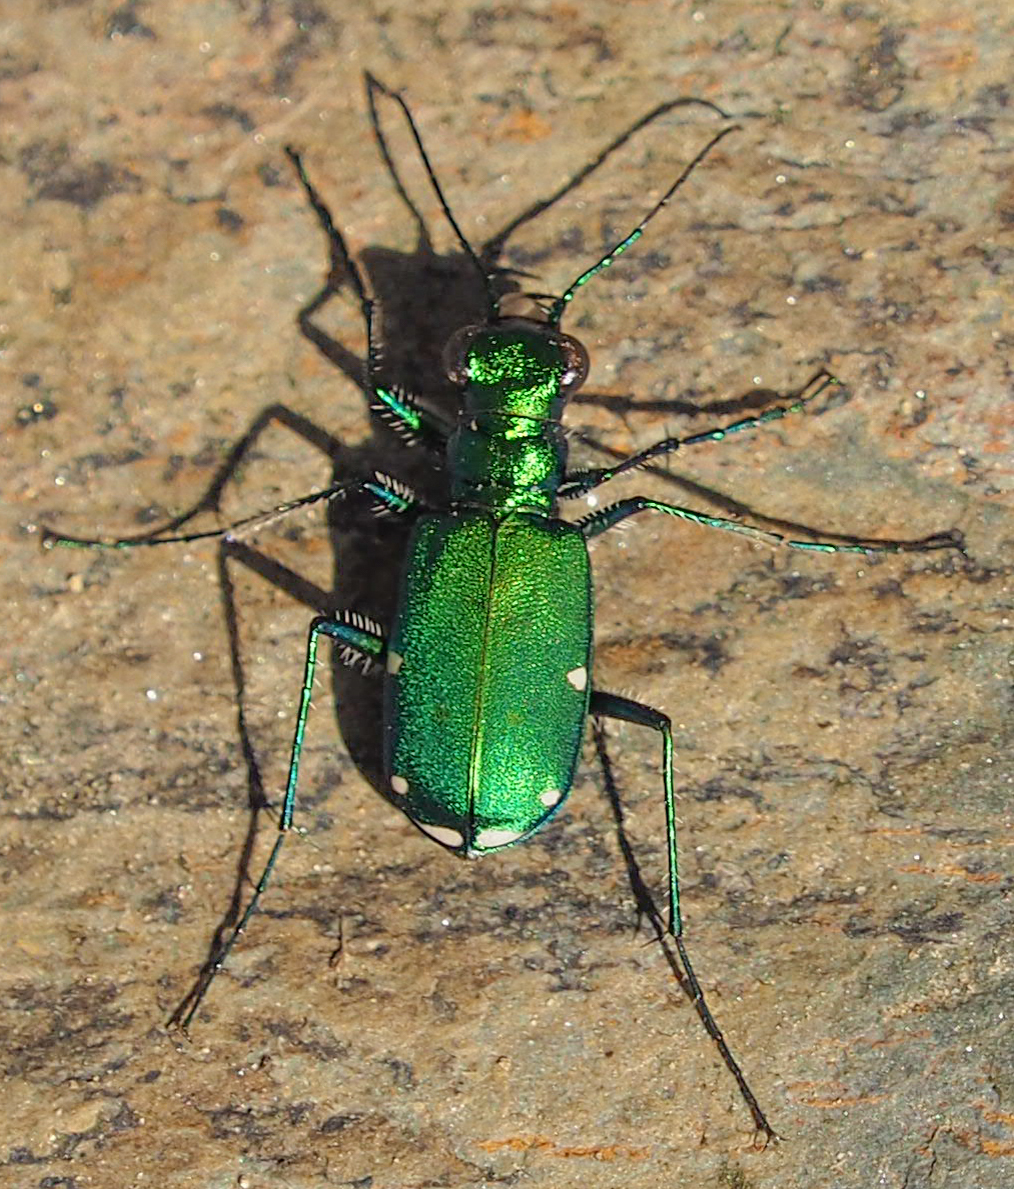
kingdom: Animalia
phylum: Arthropoda
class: Insecta
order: Coleoptera
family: Carabidae
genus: Cicindela
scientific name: Cicindela sexguttata
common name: Six-spotted tiger beetle
